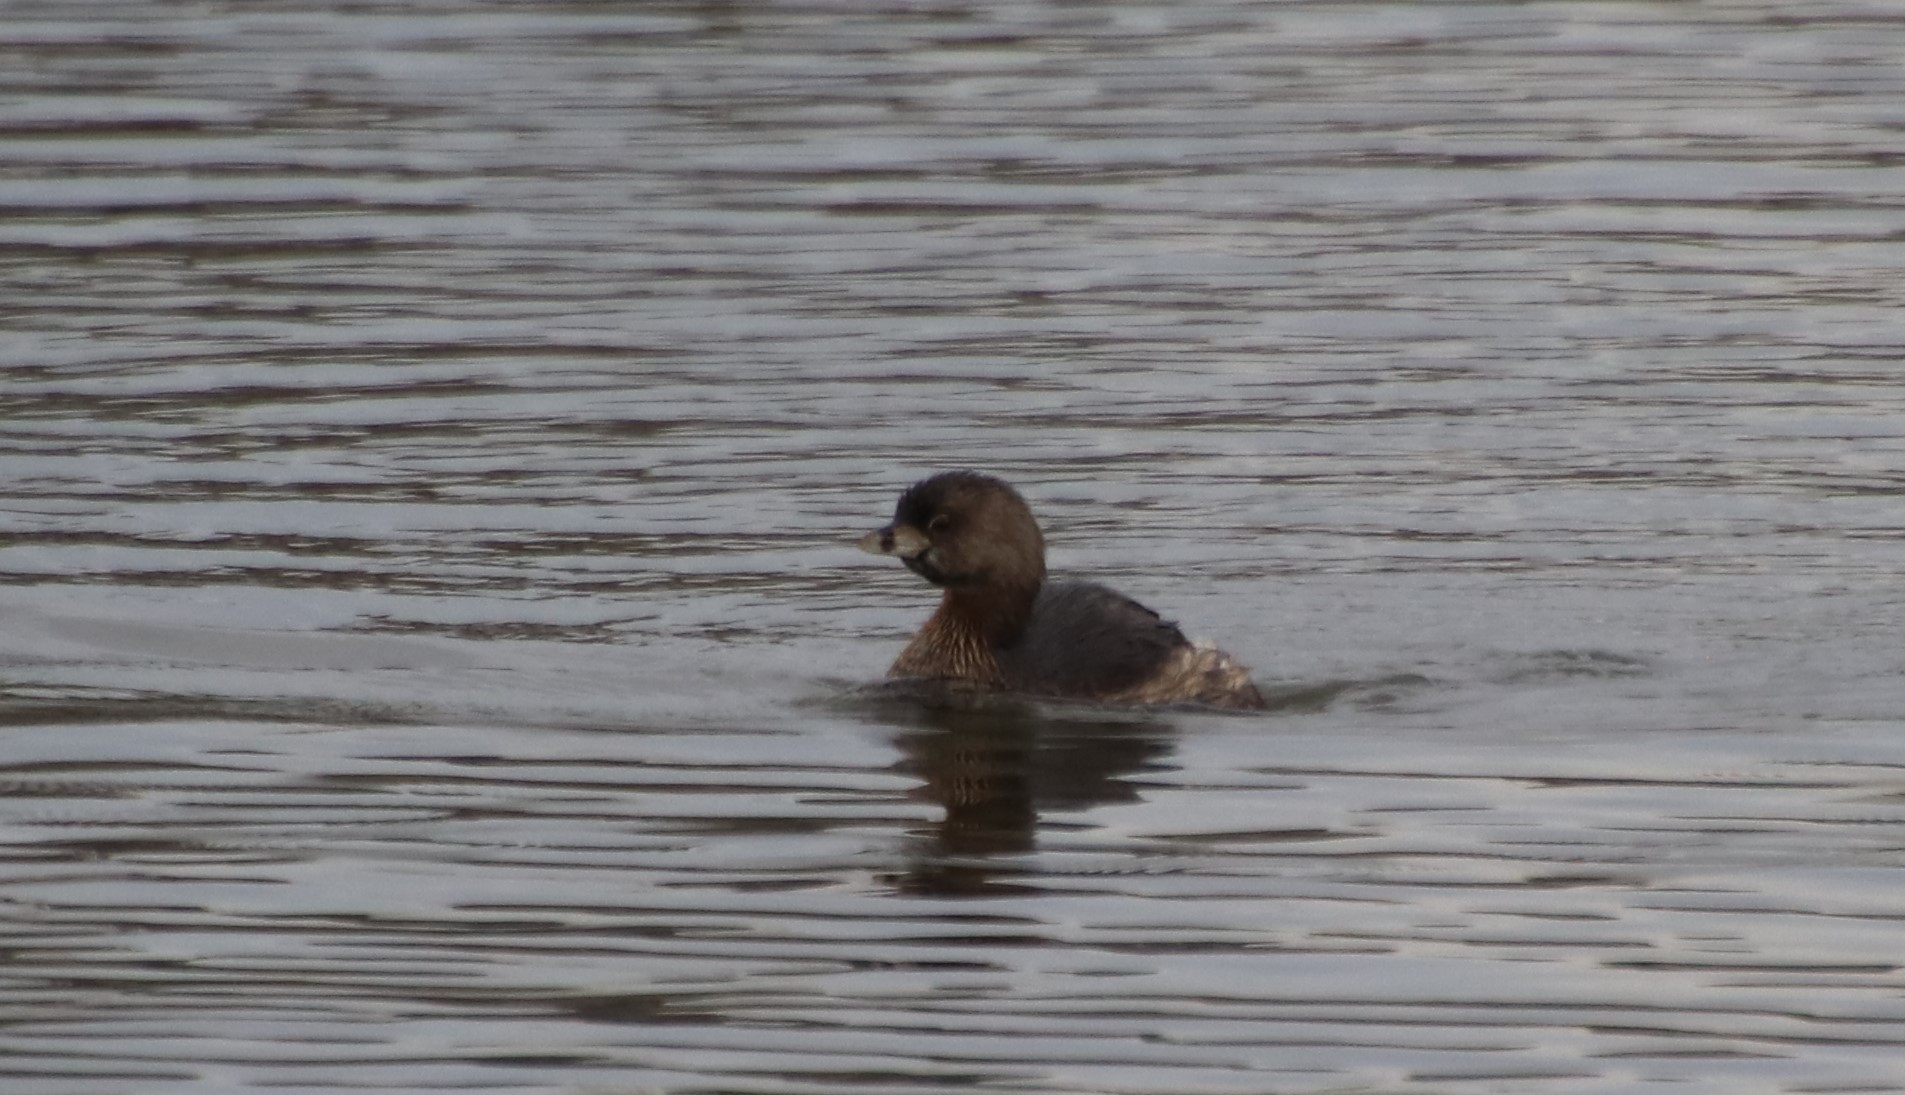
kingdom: Animalia
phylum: Chordata
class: Aves
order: Podicipediformes
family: Podicipedidae
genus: Podilymbus
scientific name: Podilymbus podiceps
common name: Pied-billed grebe
